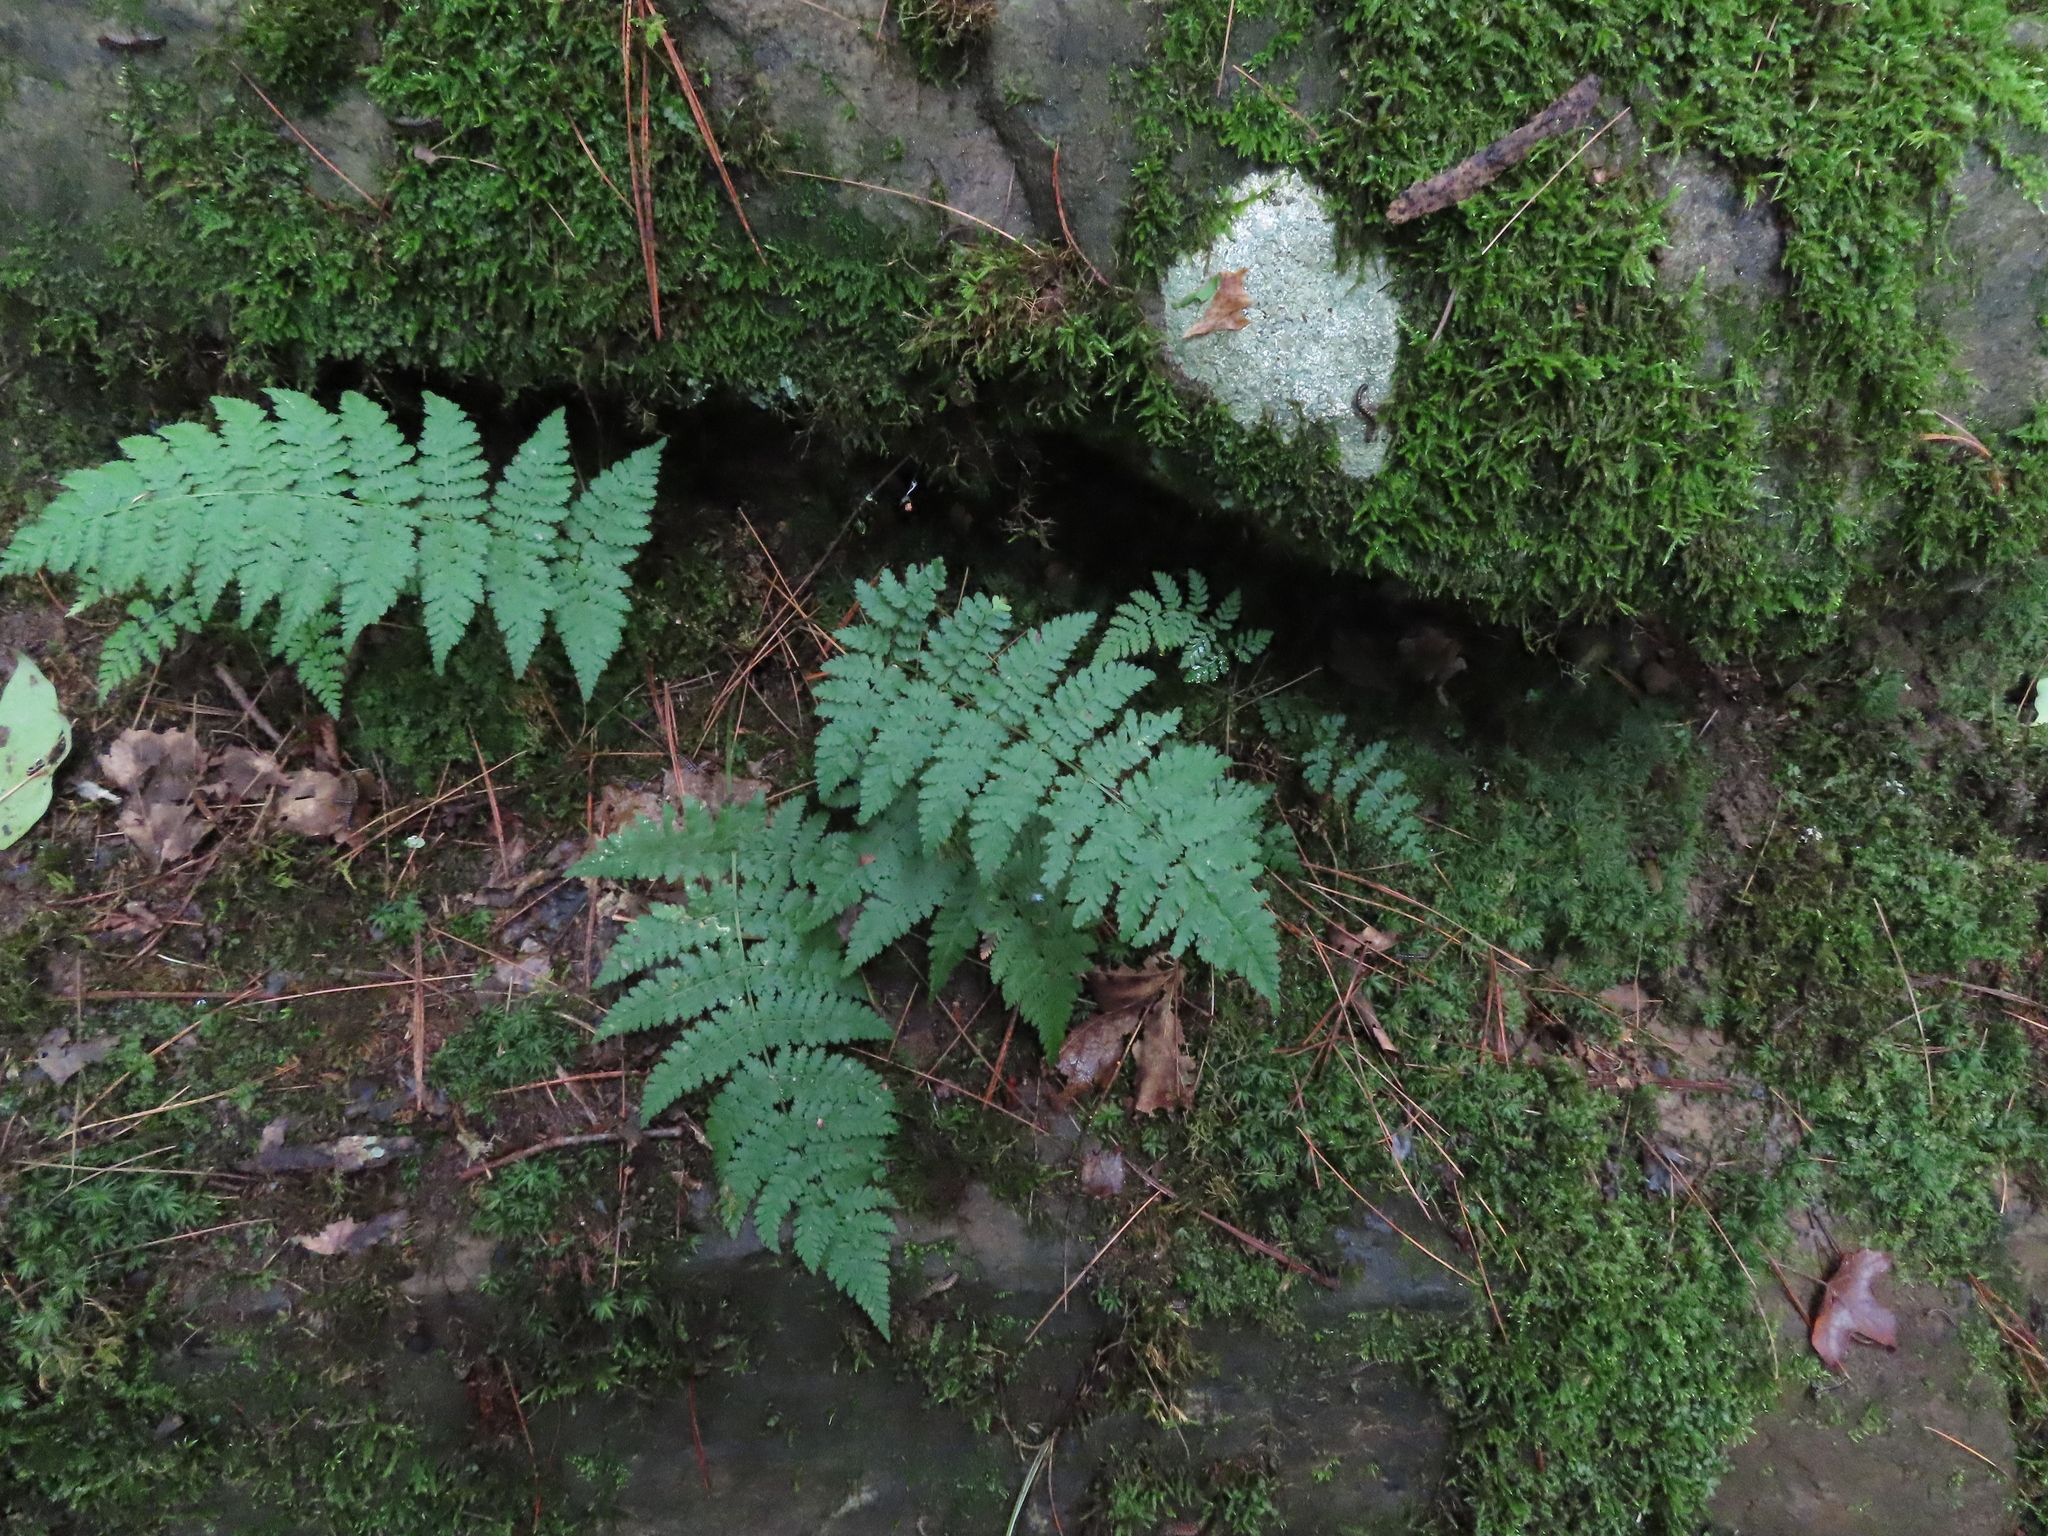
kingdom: Plantae
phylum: Tracheophyta
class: Polypodiopsida
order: Polypodiales
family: Dryopteridaceae
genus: Dryopteris
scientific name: Dryopteris intermedia
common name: Evergreen wood fern
